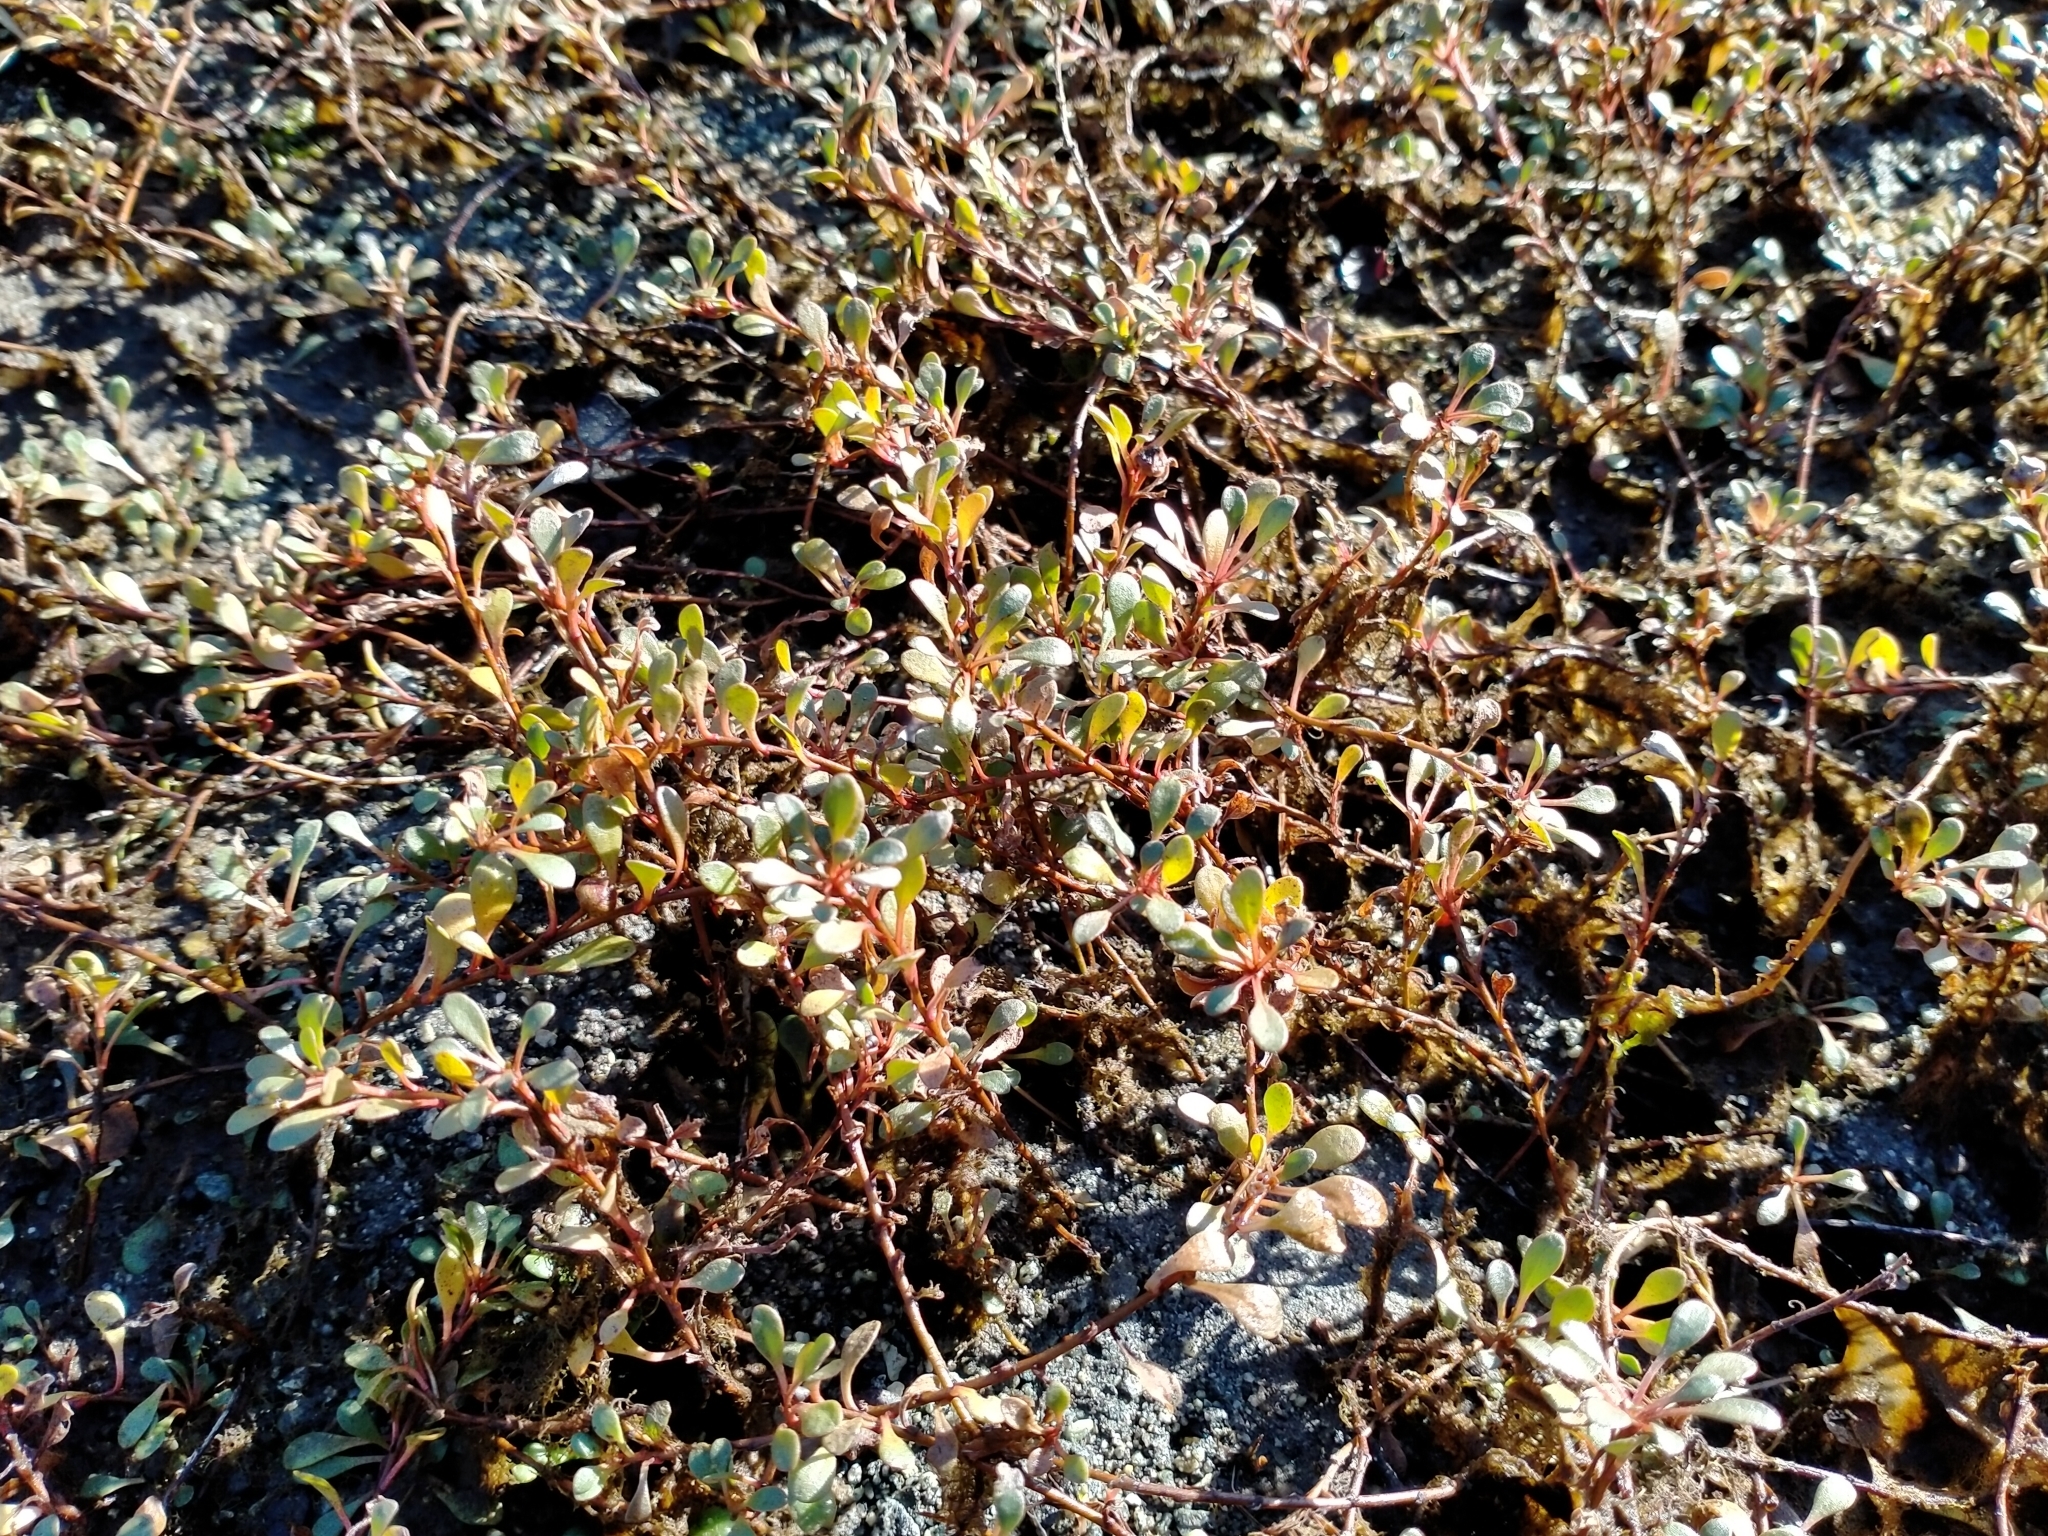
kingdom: Plantae
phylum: Tracheophyta
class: Magnoliopsida
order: Ericales
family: Primulaceae
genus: Samolus
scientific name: Samolus repens
